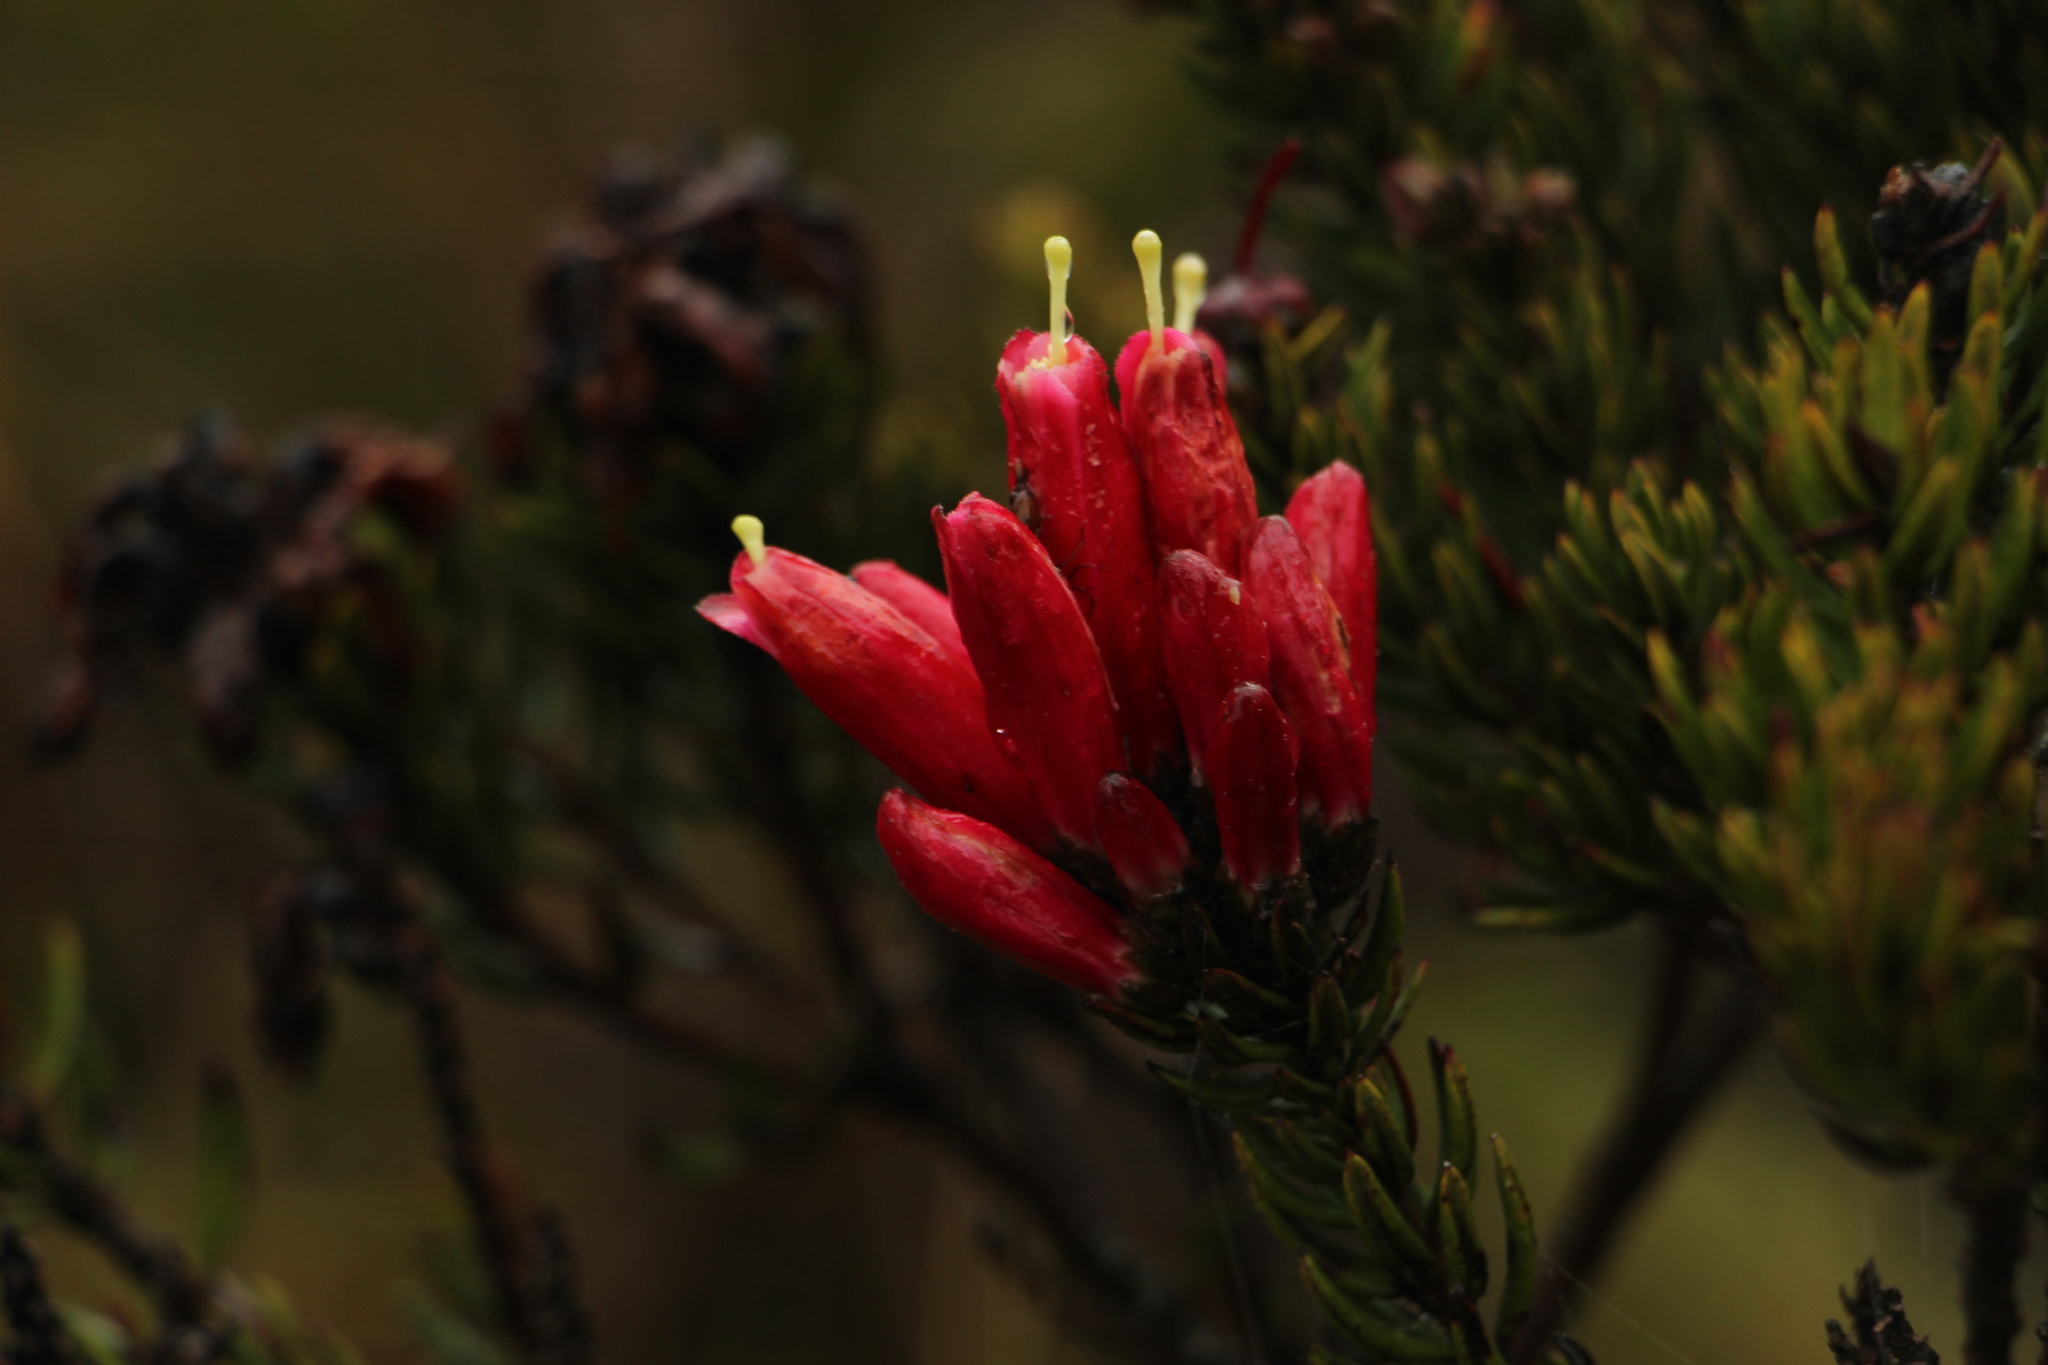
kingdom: Plantae
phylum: Tracheophyta
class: Magnoliopsida
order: Ericales
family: Ericaceae
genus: Bejaria
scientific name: Bejaria resinosa
